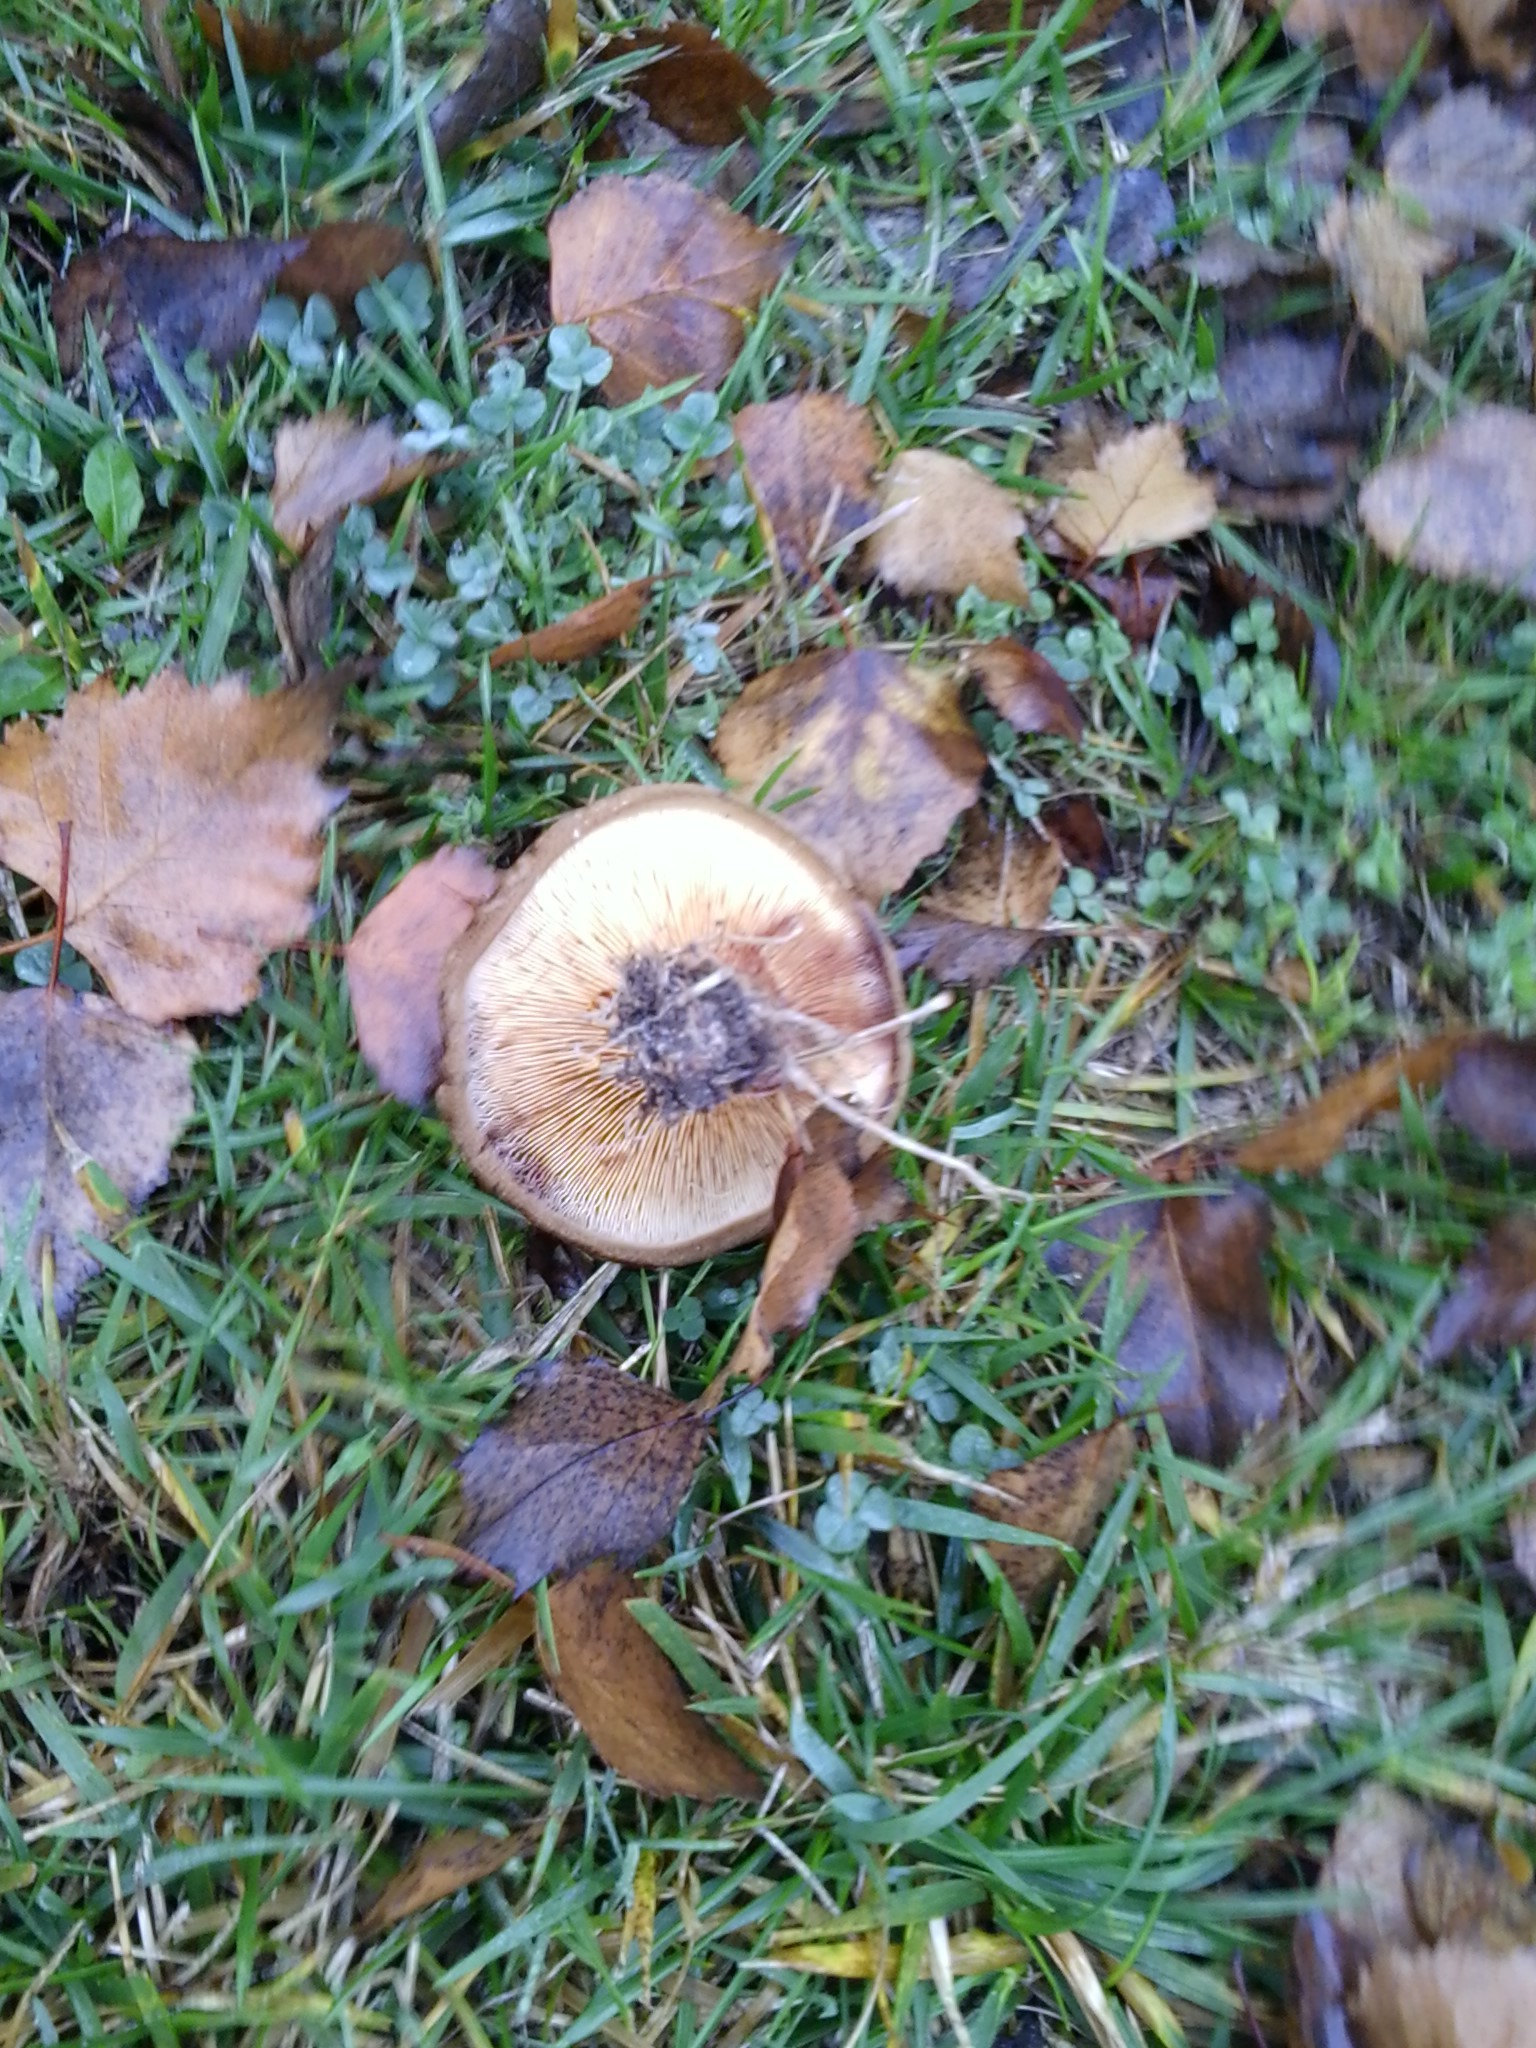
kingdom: Fungi
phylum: Basidiomycota
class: Agaricomycetes
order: Boletales
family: Paxillaceae
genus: Paxillus
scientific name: Paxillus involutus
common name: Brown roll rim
